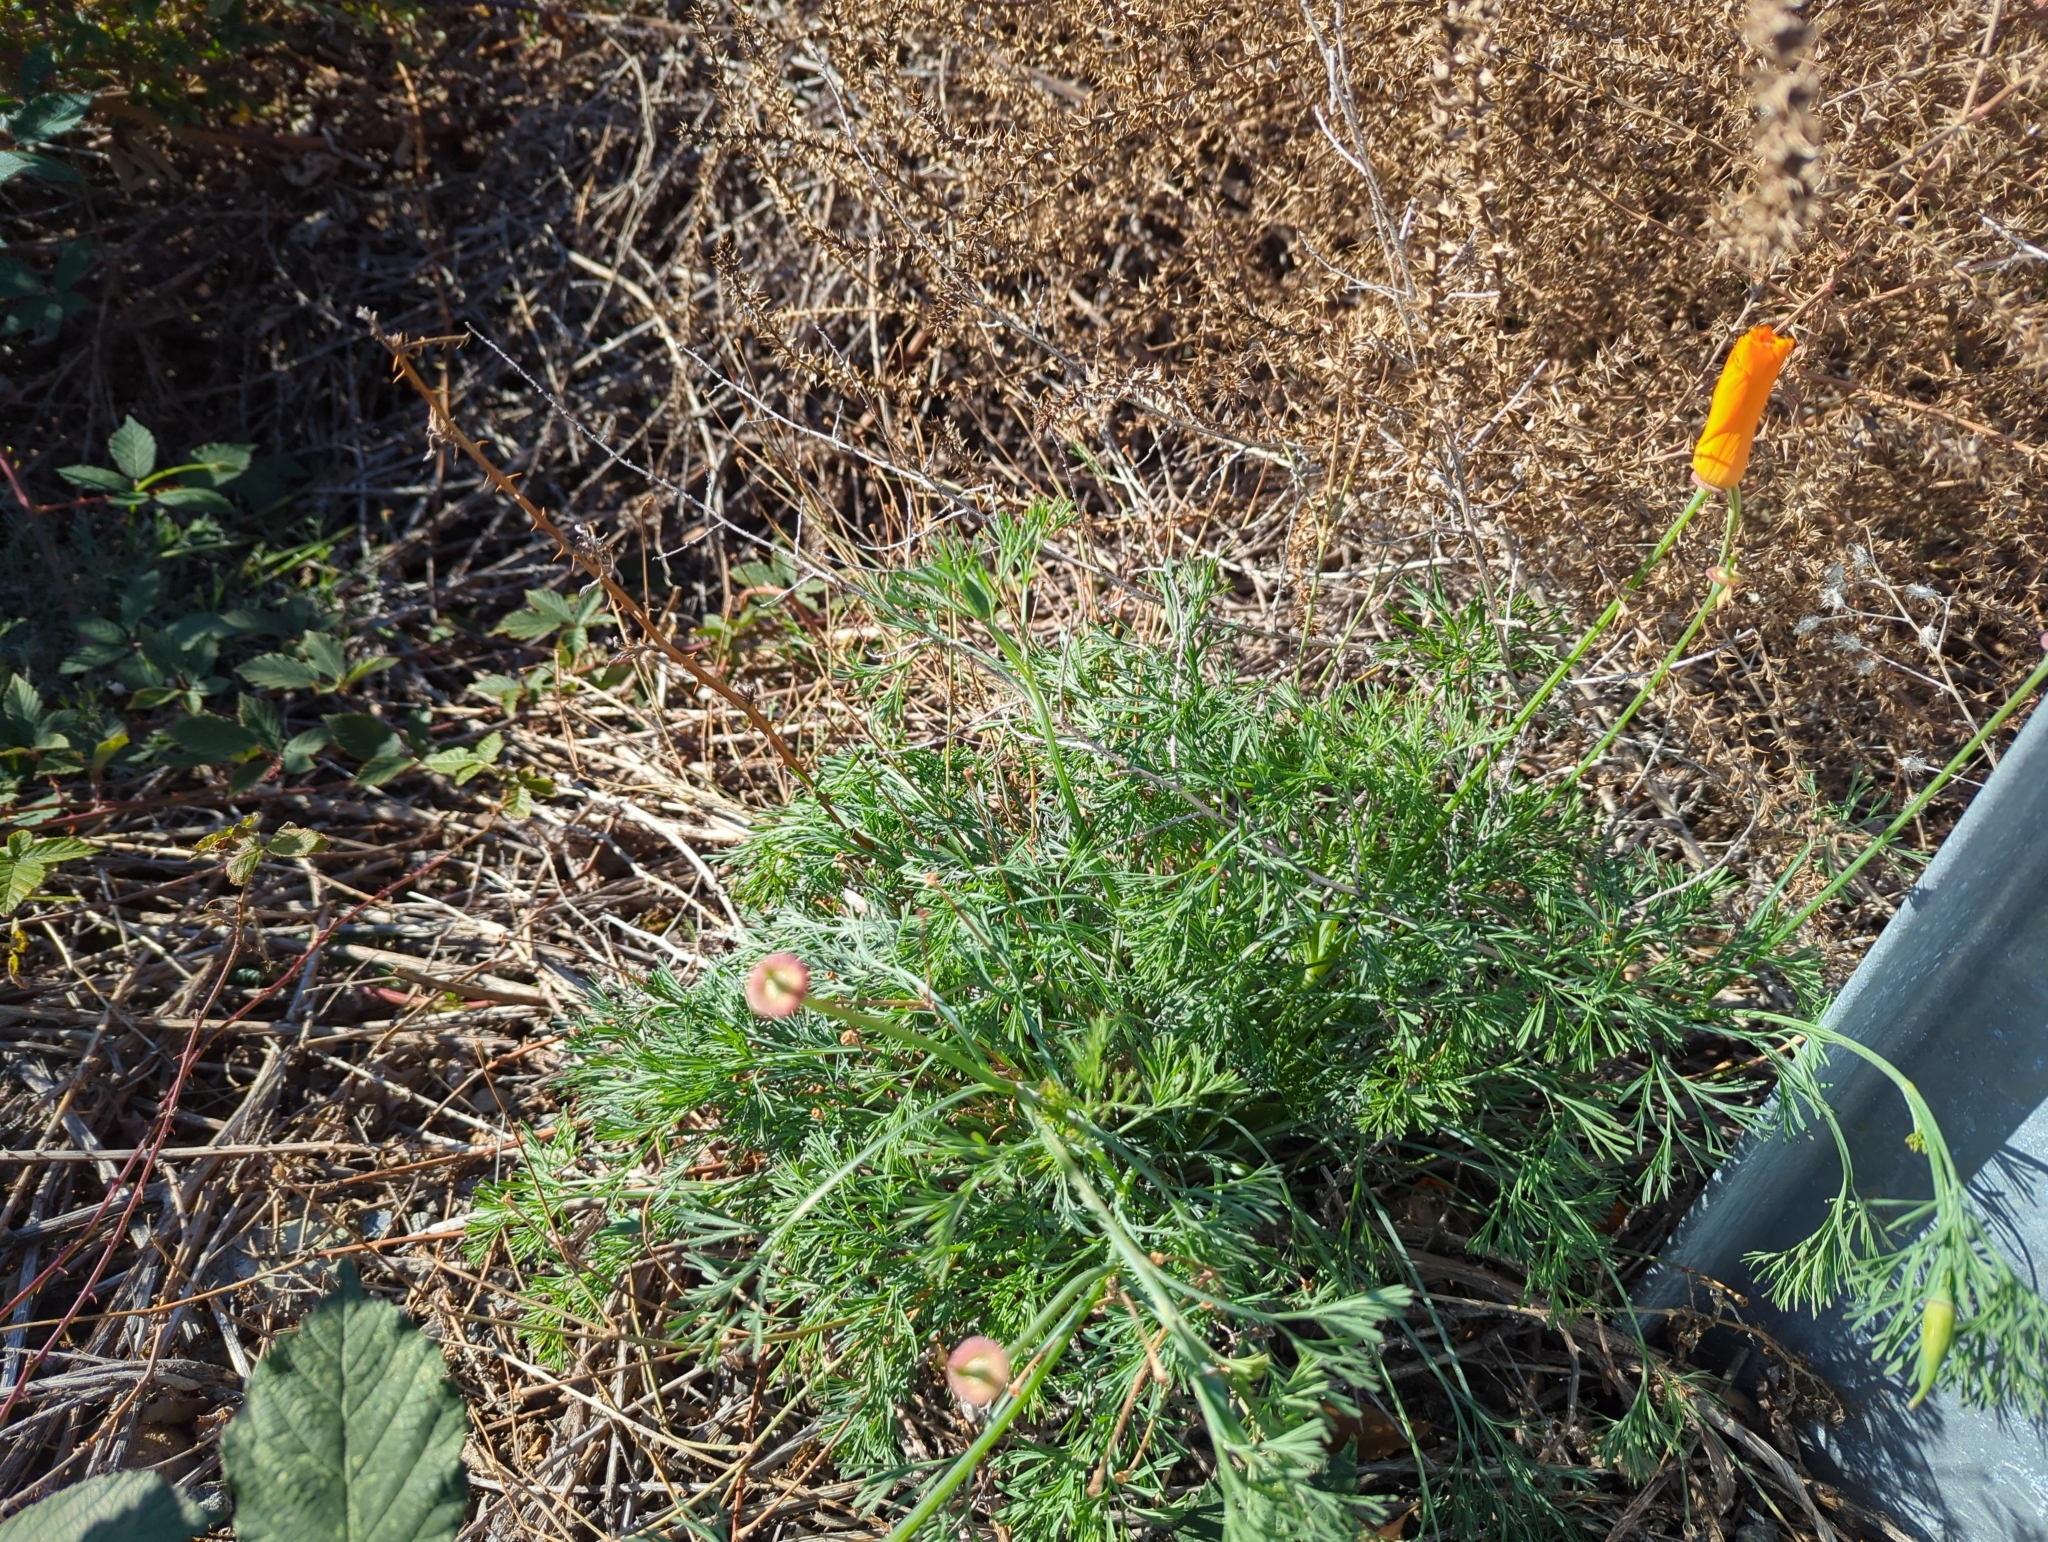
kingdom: Plantae
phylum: Tracheophyta
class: Magnoliopsida
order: Ranunculales
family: Papaveraceae
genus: Eschscholzia
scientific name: Eschscholzia californica
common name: California poppy
